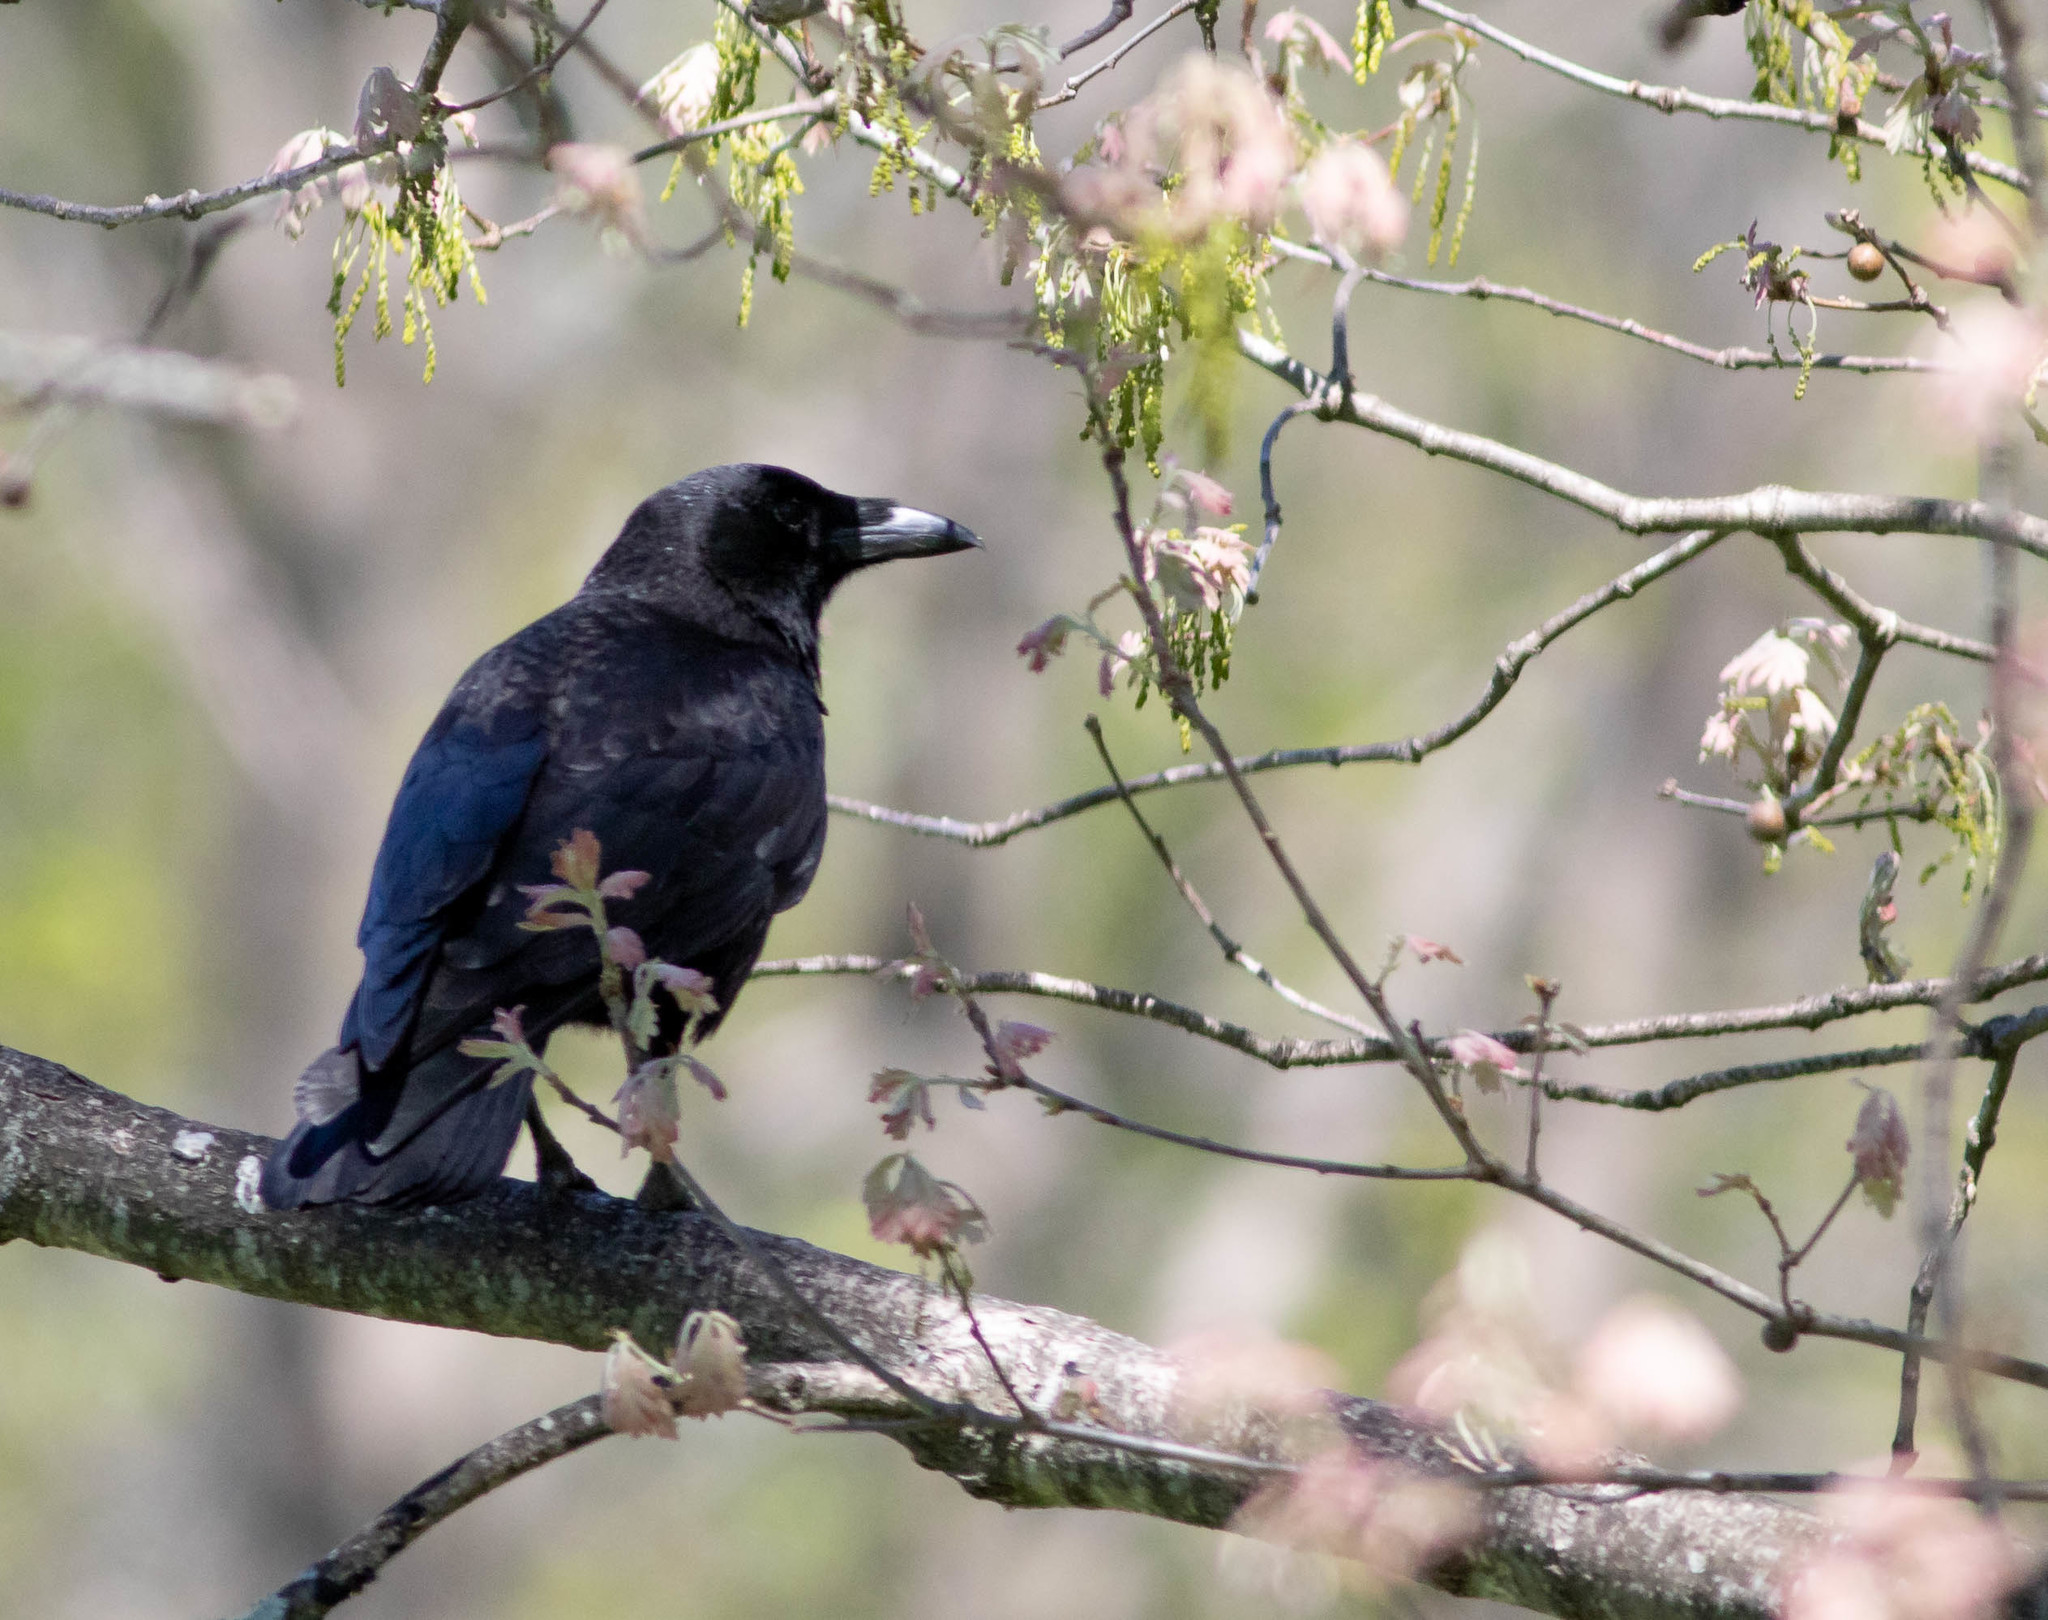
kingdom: Animalia
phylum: Chordata
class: Aves
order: Passeriformes
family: Corvidae
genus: Corvus
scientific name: Corvus corax
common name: Common raven
